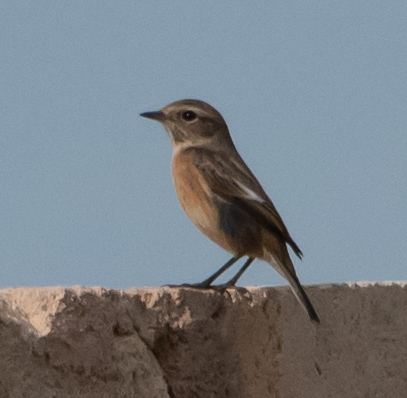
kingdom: Animalia
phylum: Chordata
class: Aves
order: Passeriformes
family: Muscicapidae
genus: Saxicola
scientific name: Saxicola rubicola
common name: European stonechat
